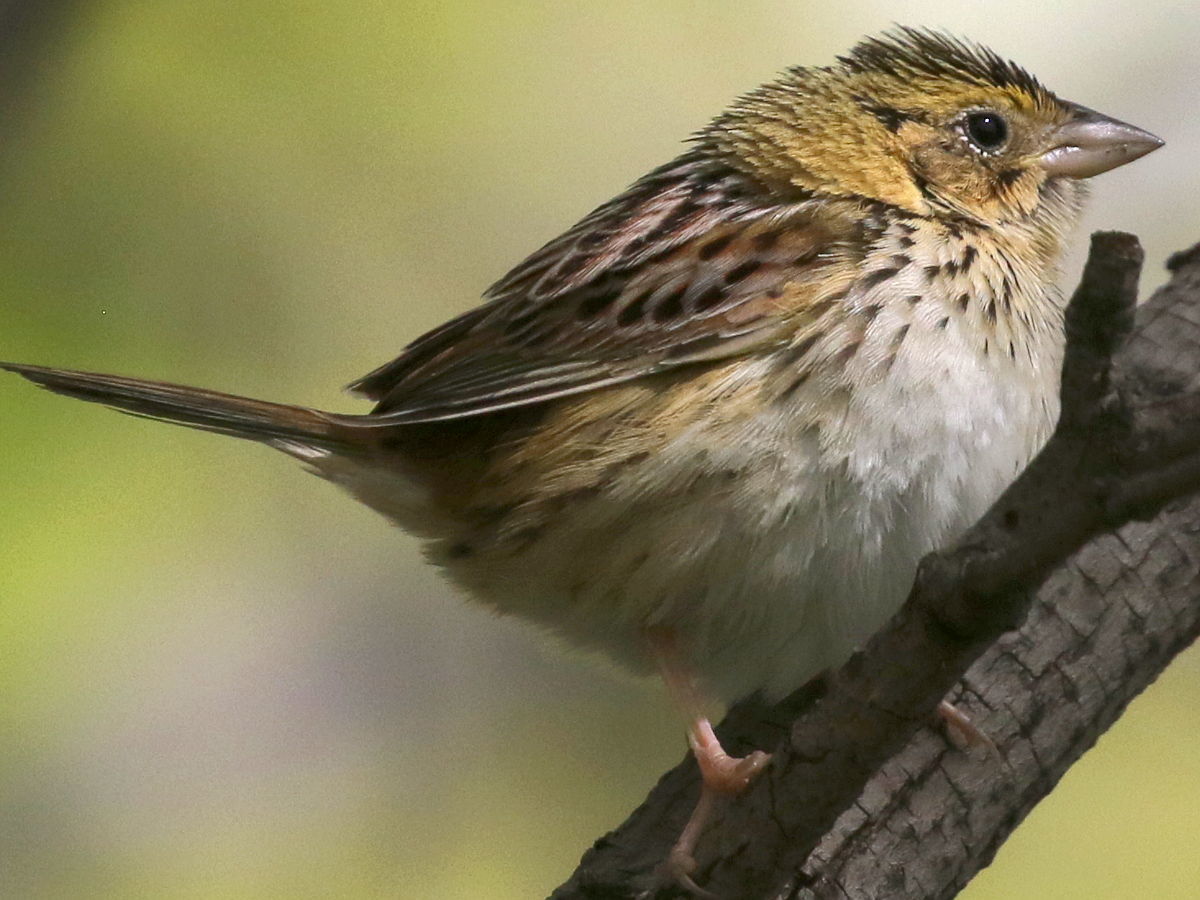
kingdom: Animalia
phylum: Chordata
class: Aves
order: Passeriformes
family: Passerellidae
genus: Centronyx
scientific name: Centronyx henslowii
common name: Henslow's sparrow
